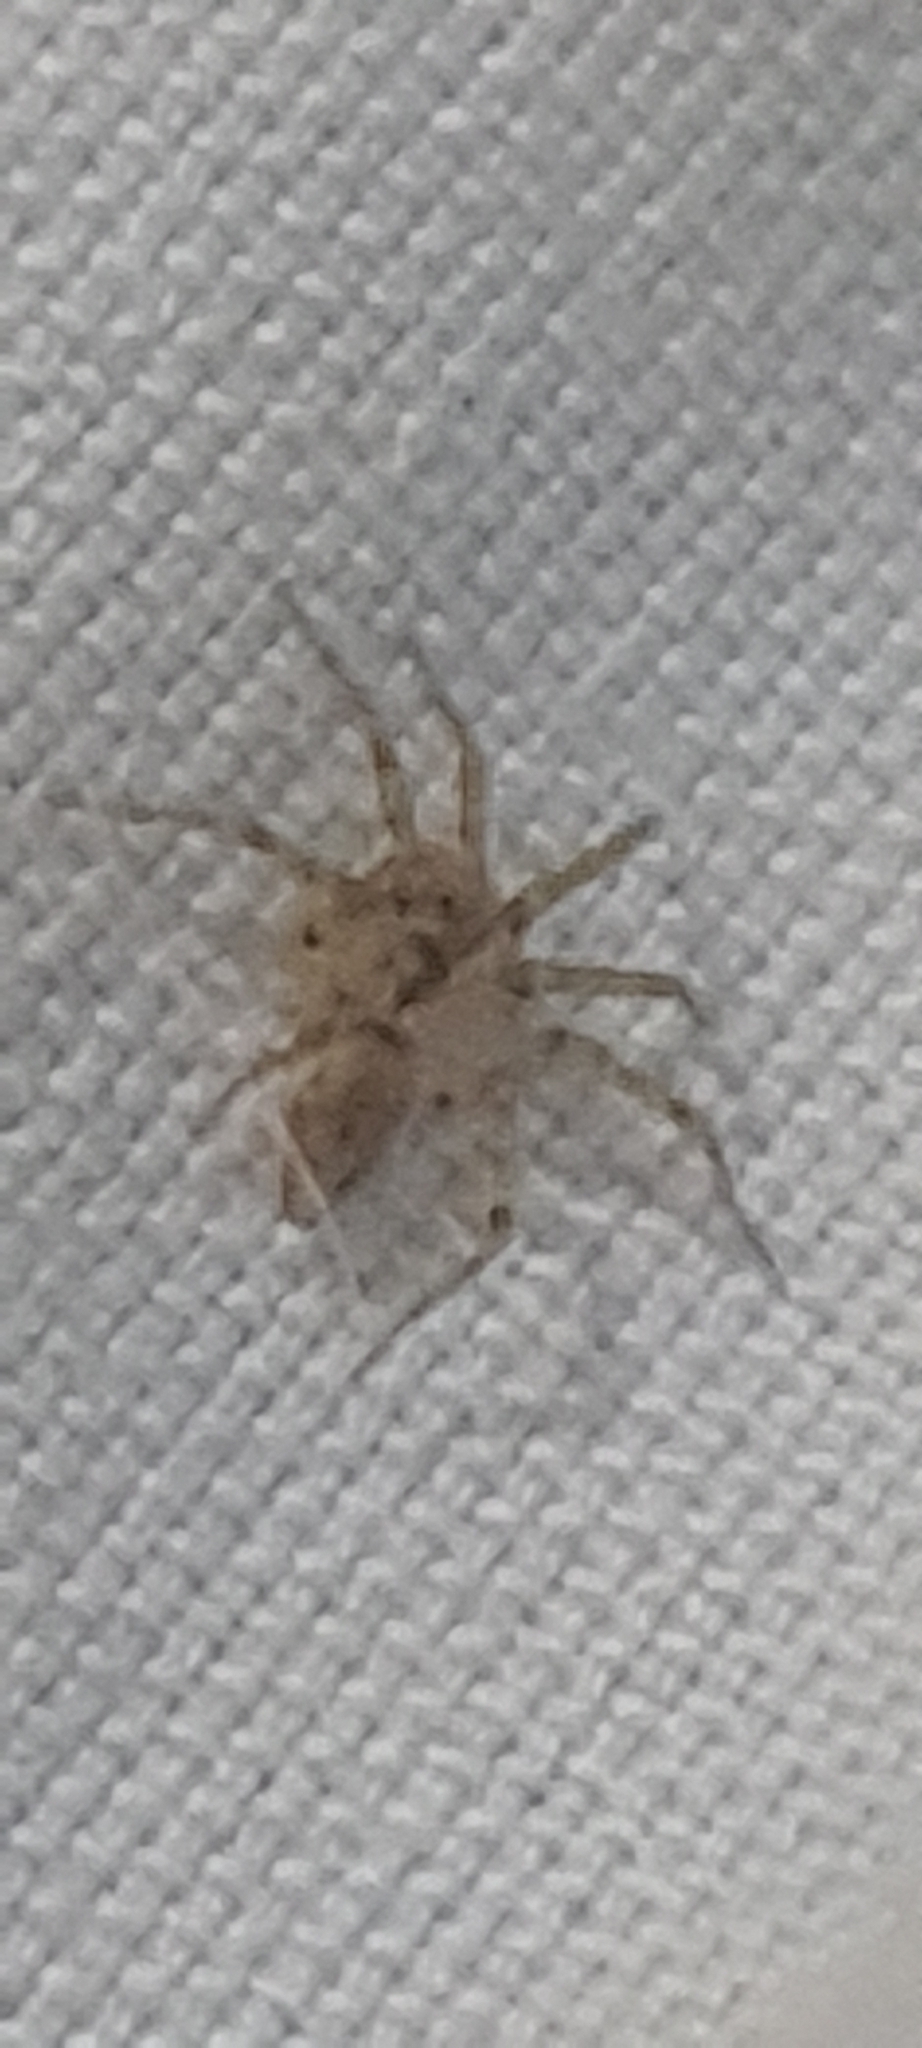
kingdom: Animalia
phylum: Arthropoda
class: Arachnida
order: Araneae
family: Oecobiidae
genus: Oecobius
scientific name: Oecobius navus
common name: Flatmesh weaver
